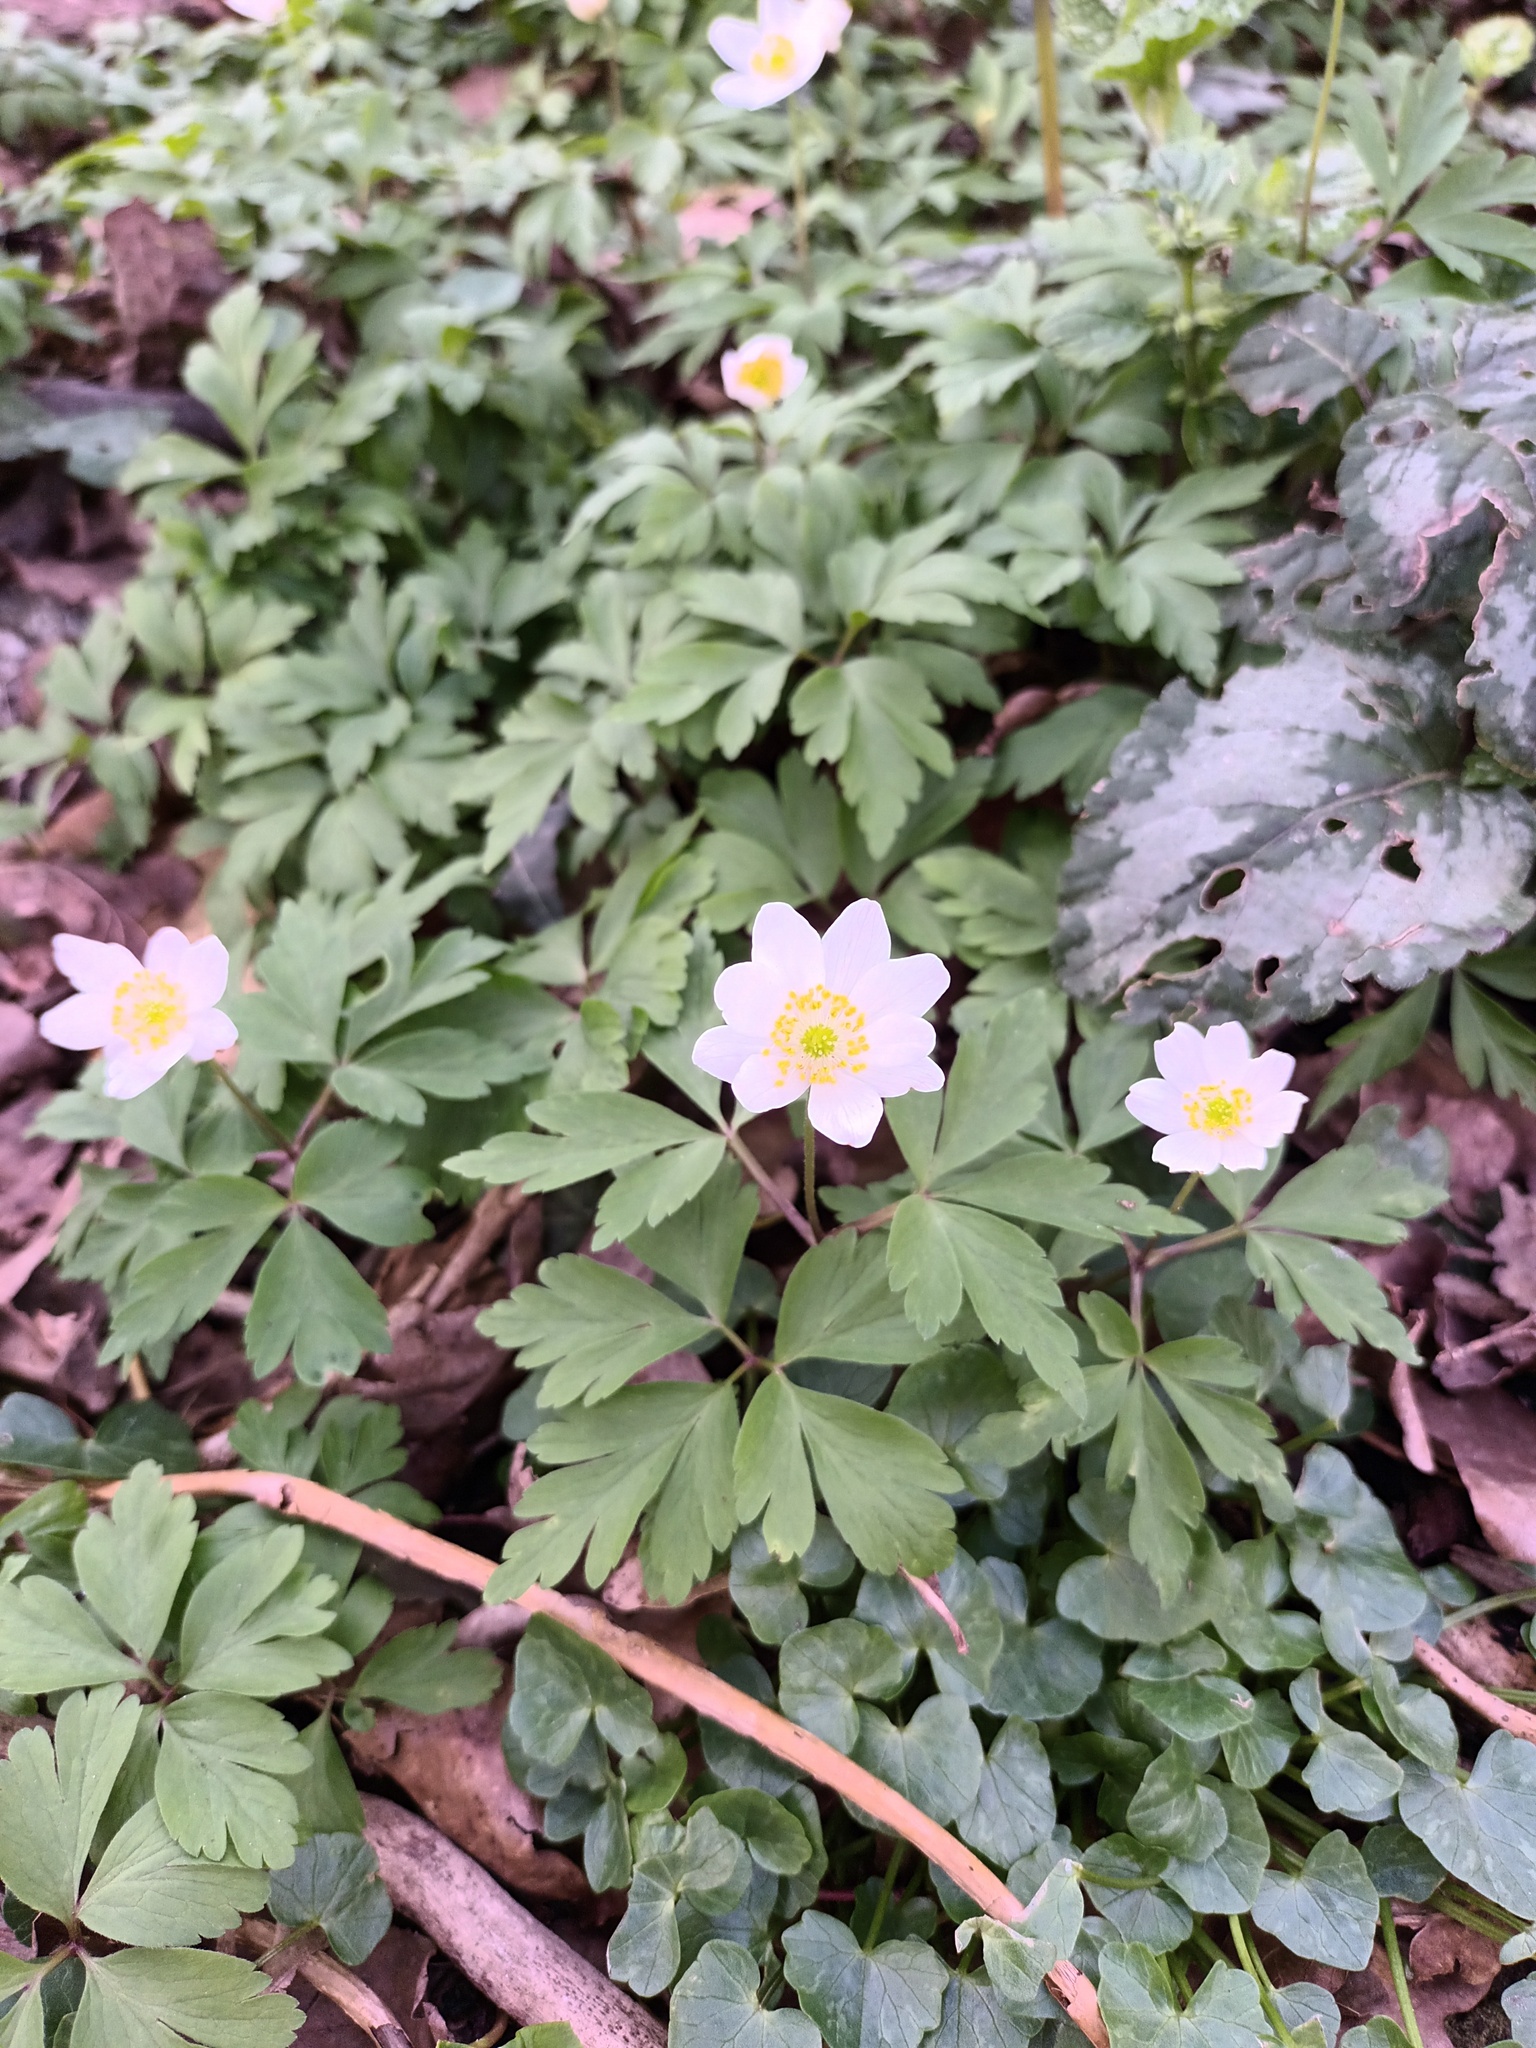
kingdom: Plantae
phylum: Tracheophyta
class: Magnoliopsida
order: Ranunculales
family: Ranunculaceae
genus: Anemone
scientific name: Anemone nemorosa
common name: Wood anemone
